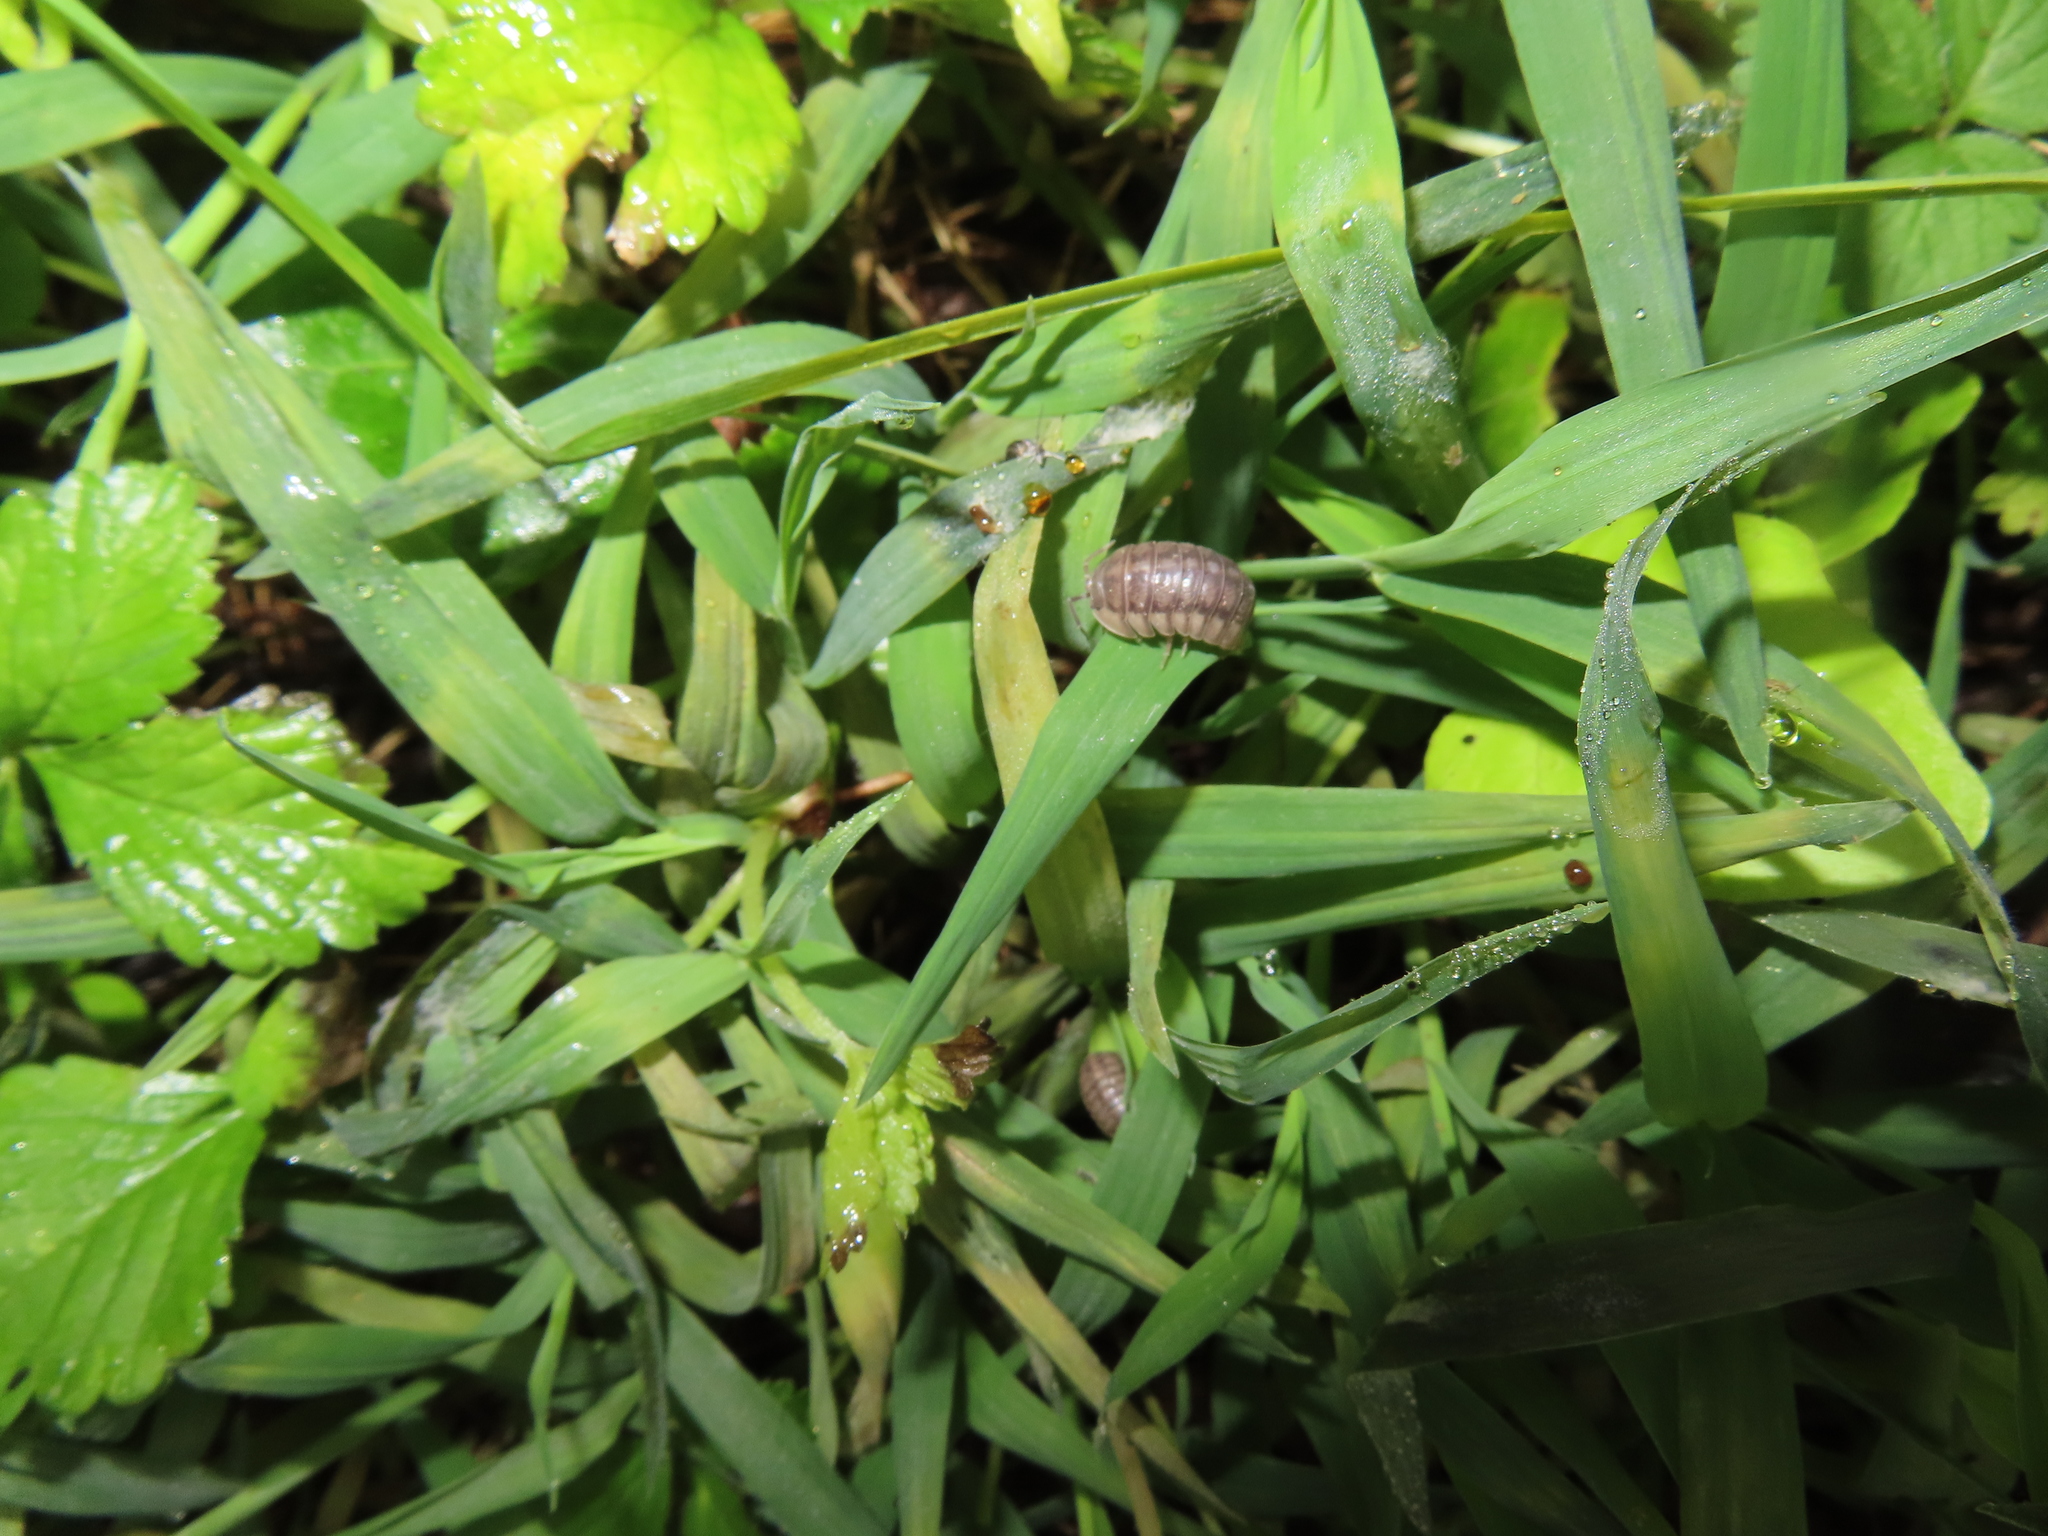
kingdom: Animalia
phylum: Arthropoda
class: Malacostraca
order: Isopoda
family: Armadillidiidae
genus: Armadillidium
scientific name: Armadillidium nasatum
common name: Isopod
